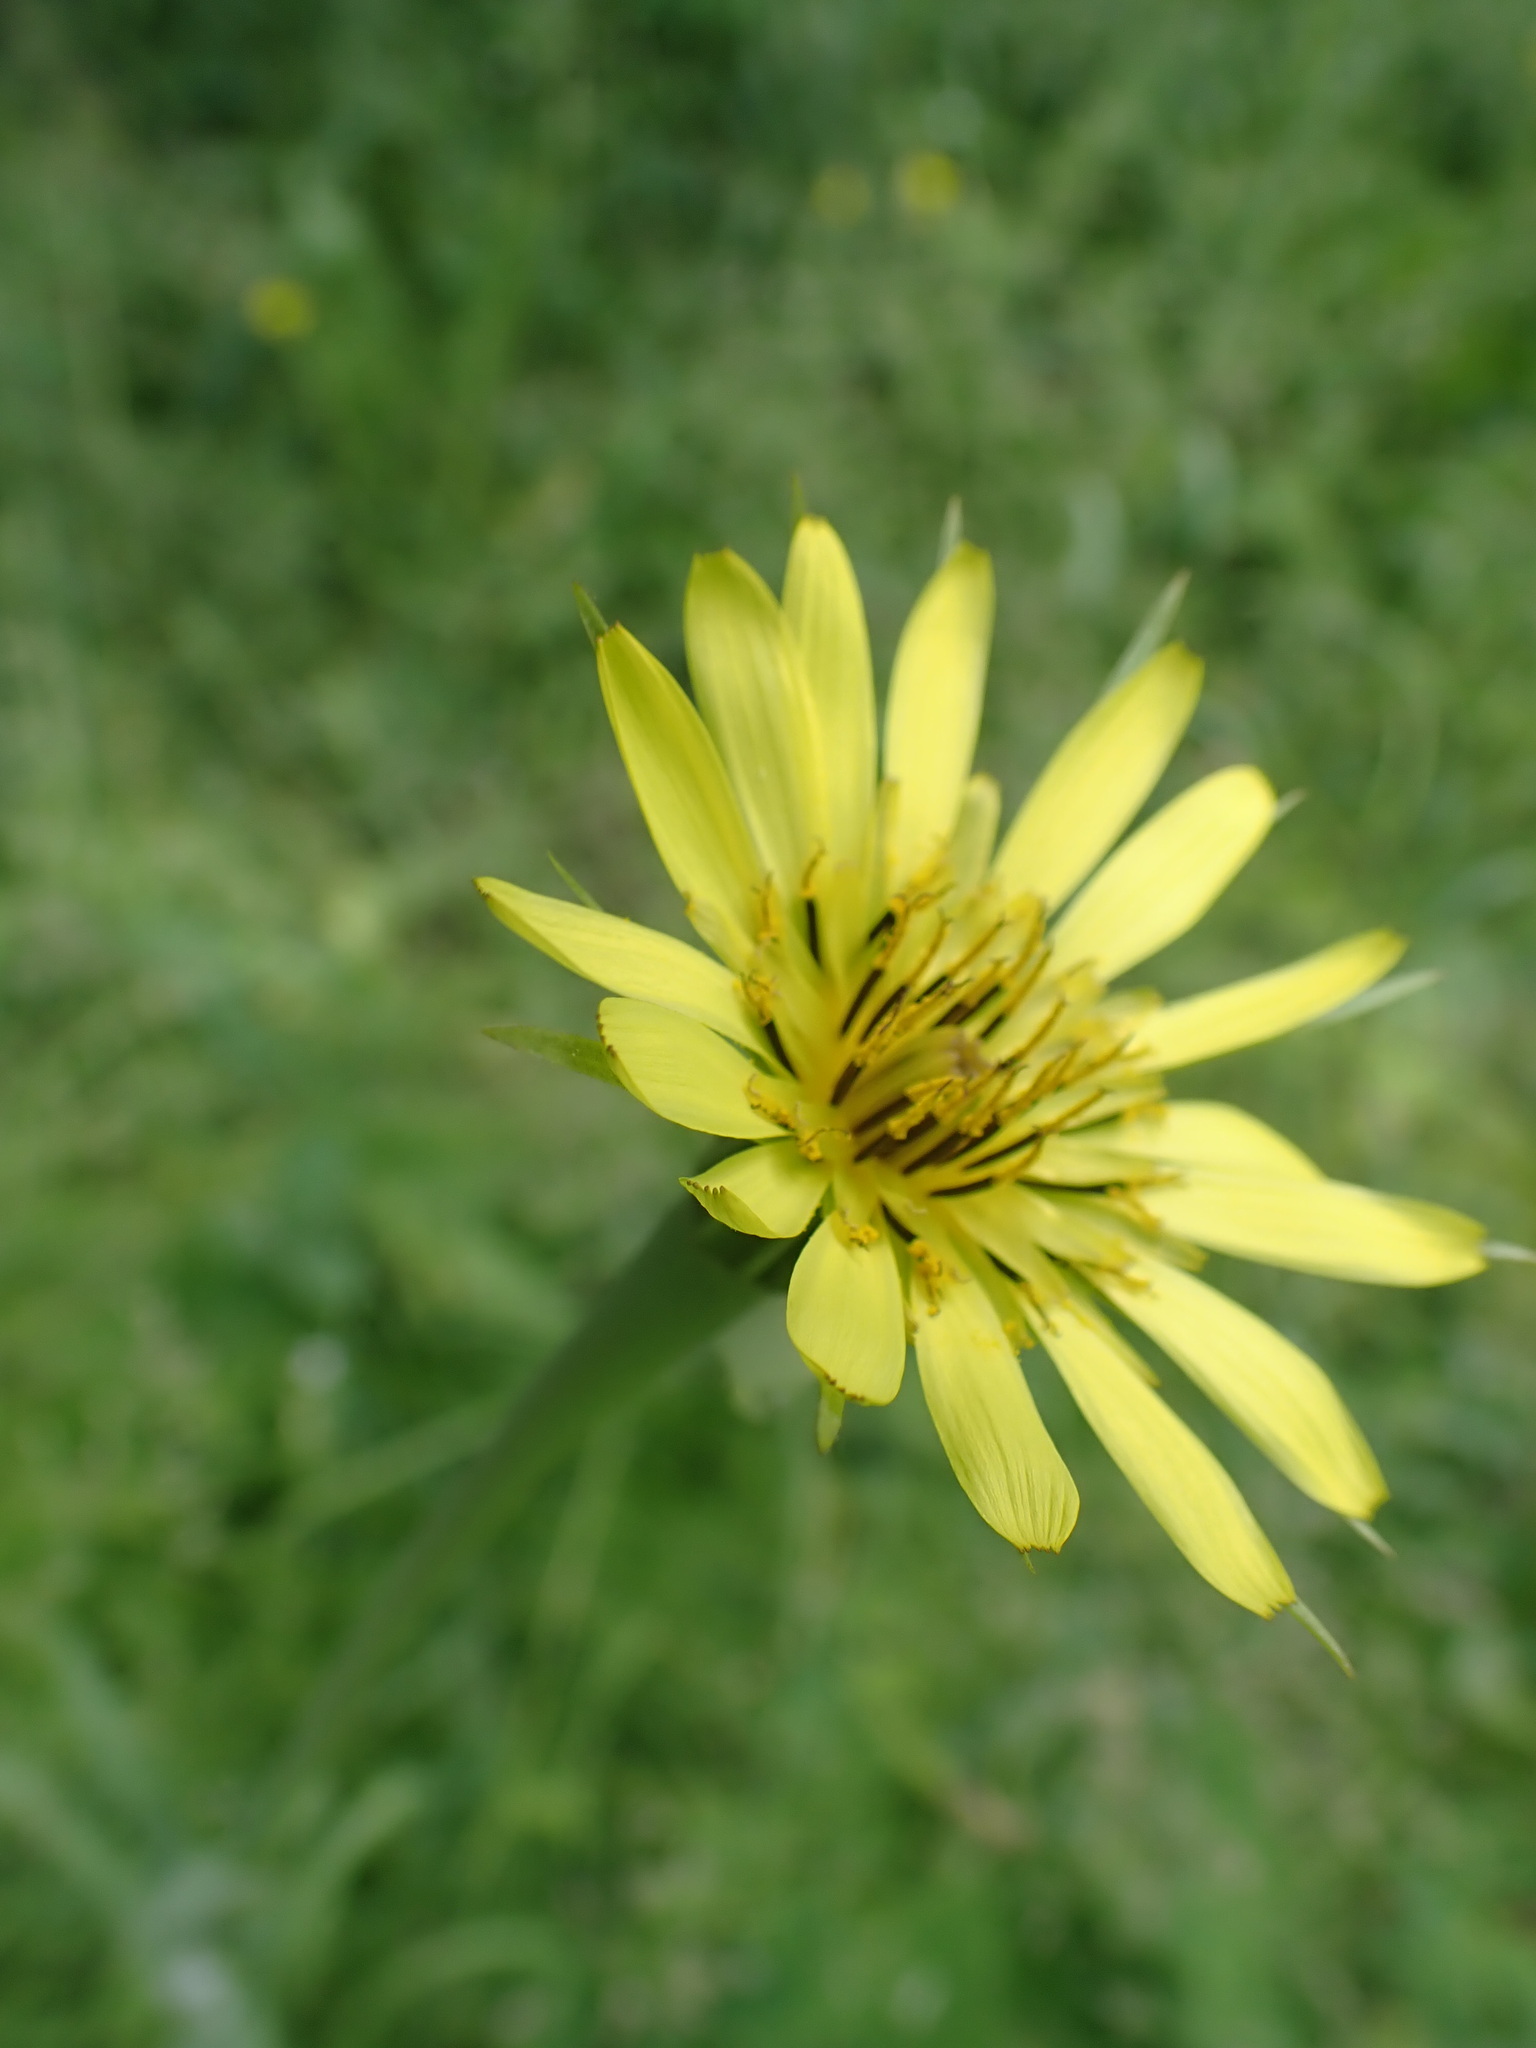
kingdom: Plantae
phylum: Tracheophyta
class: Magnoliopsida
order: Asterales
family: Asteraceae
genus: Tragopogon
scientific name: Tragopogon dubius
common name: Yellow salsify
